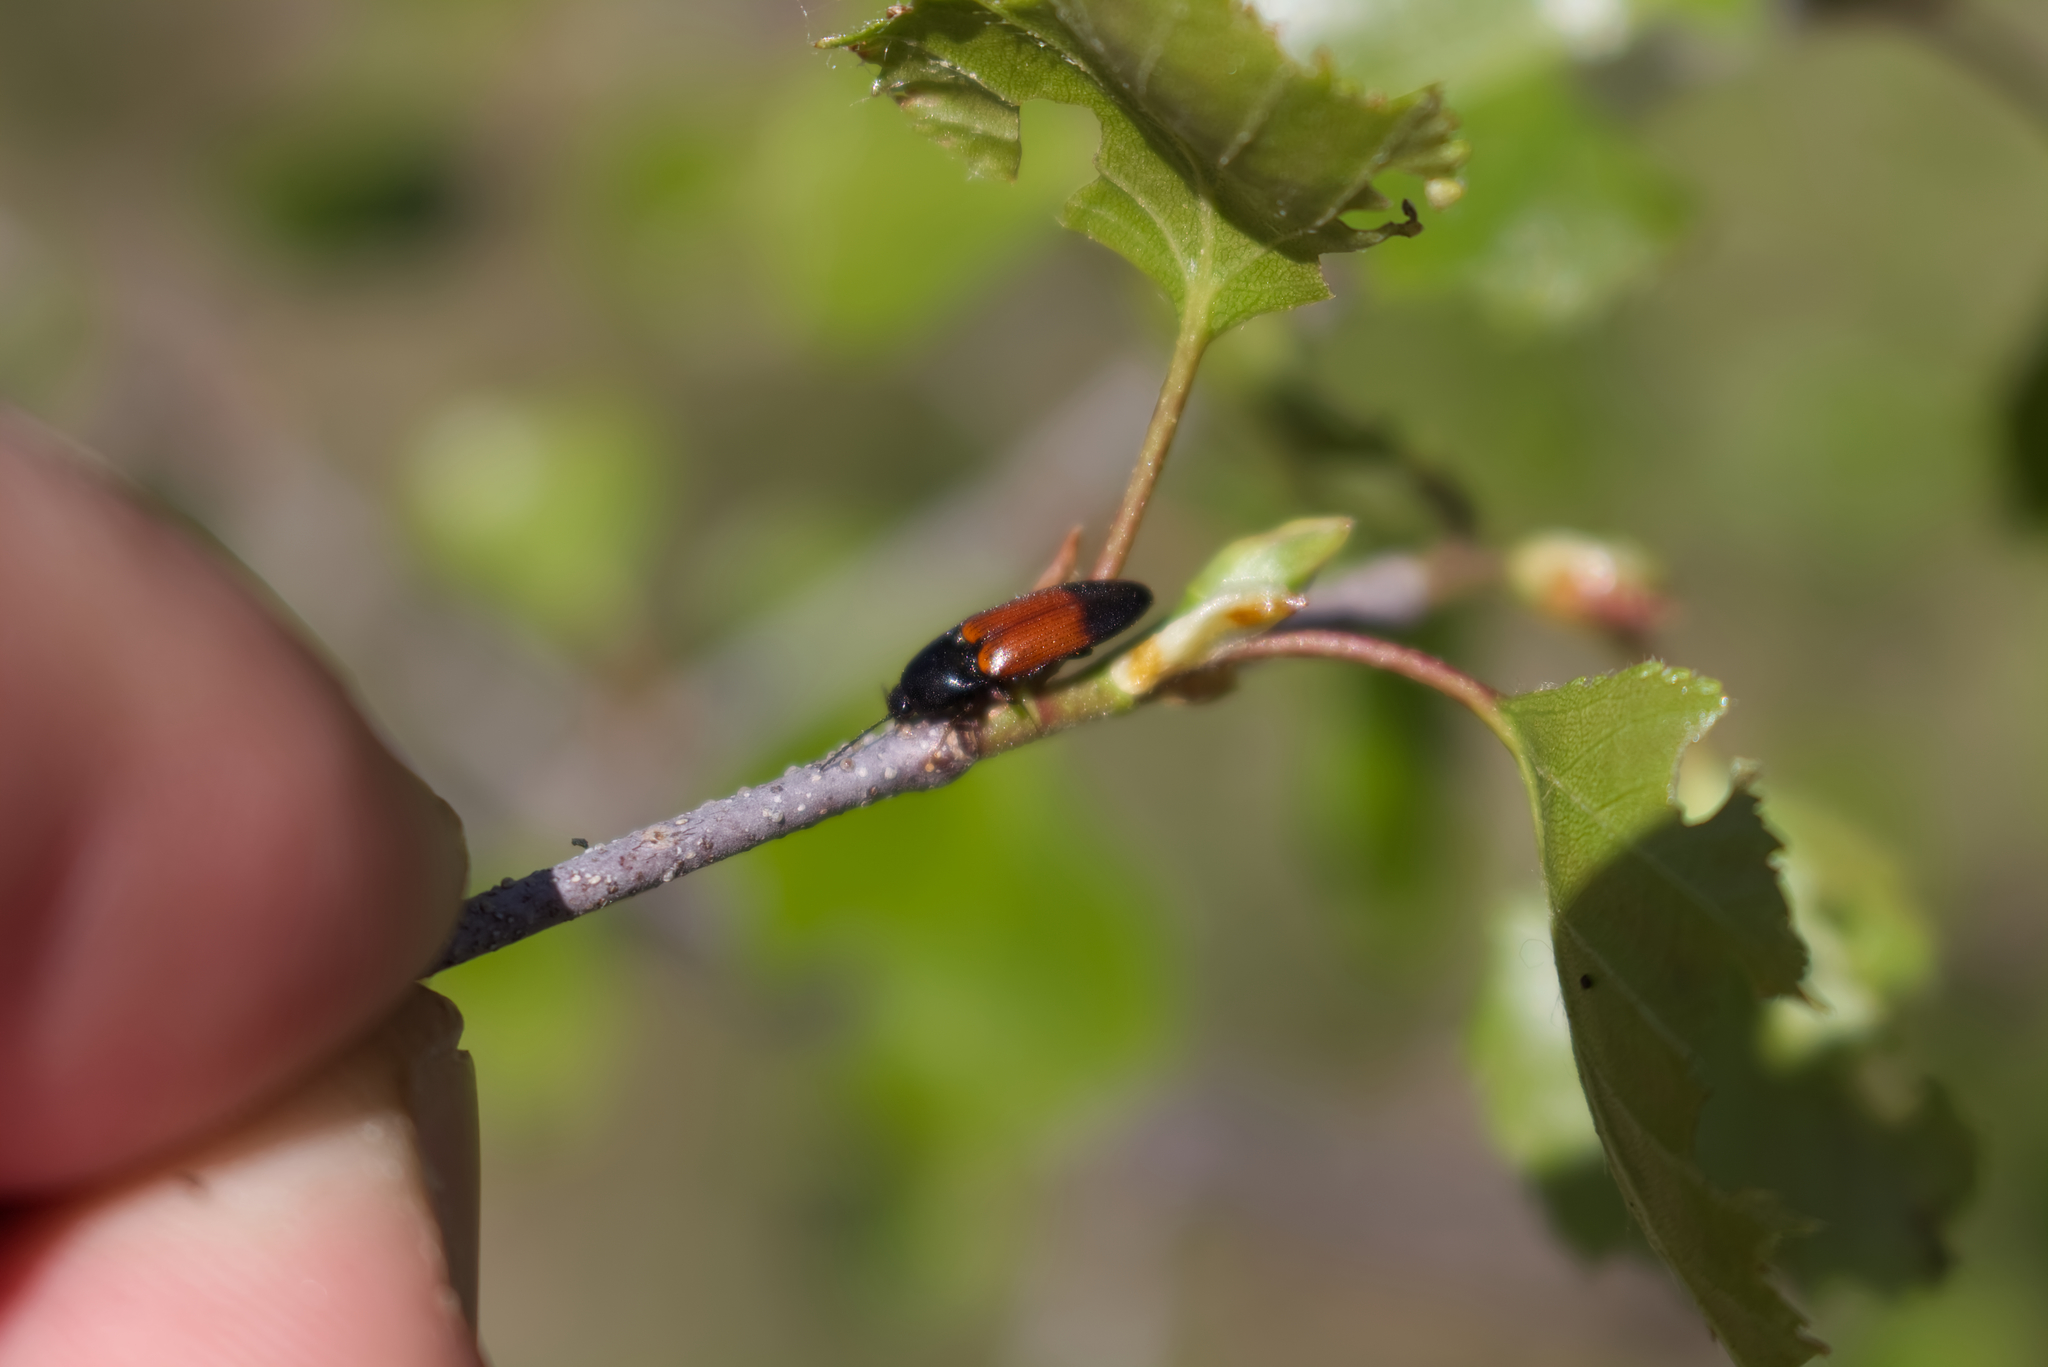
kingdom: Animalia
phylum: Arthropoda
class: Insecta
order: Coleoptera
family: Elateridae
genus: Ampedus
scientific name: Ampedus balteatus
